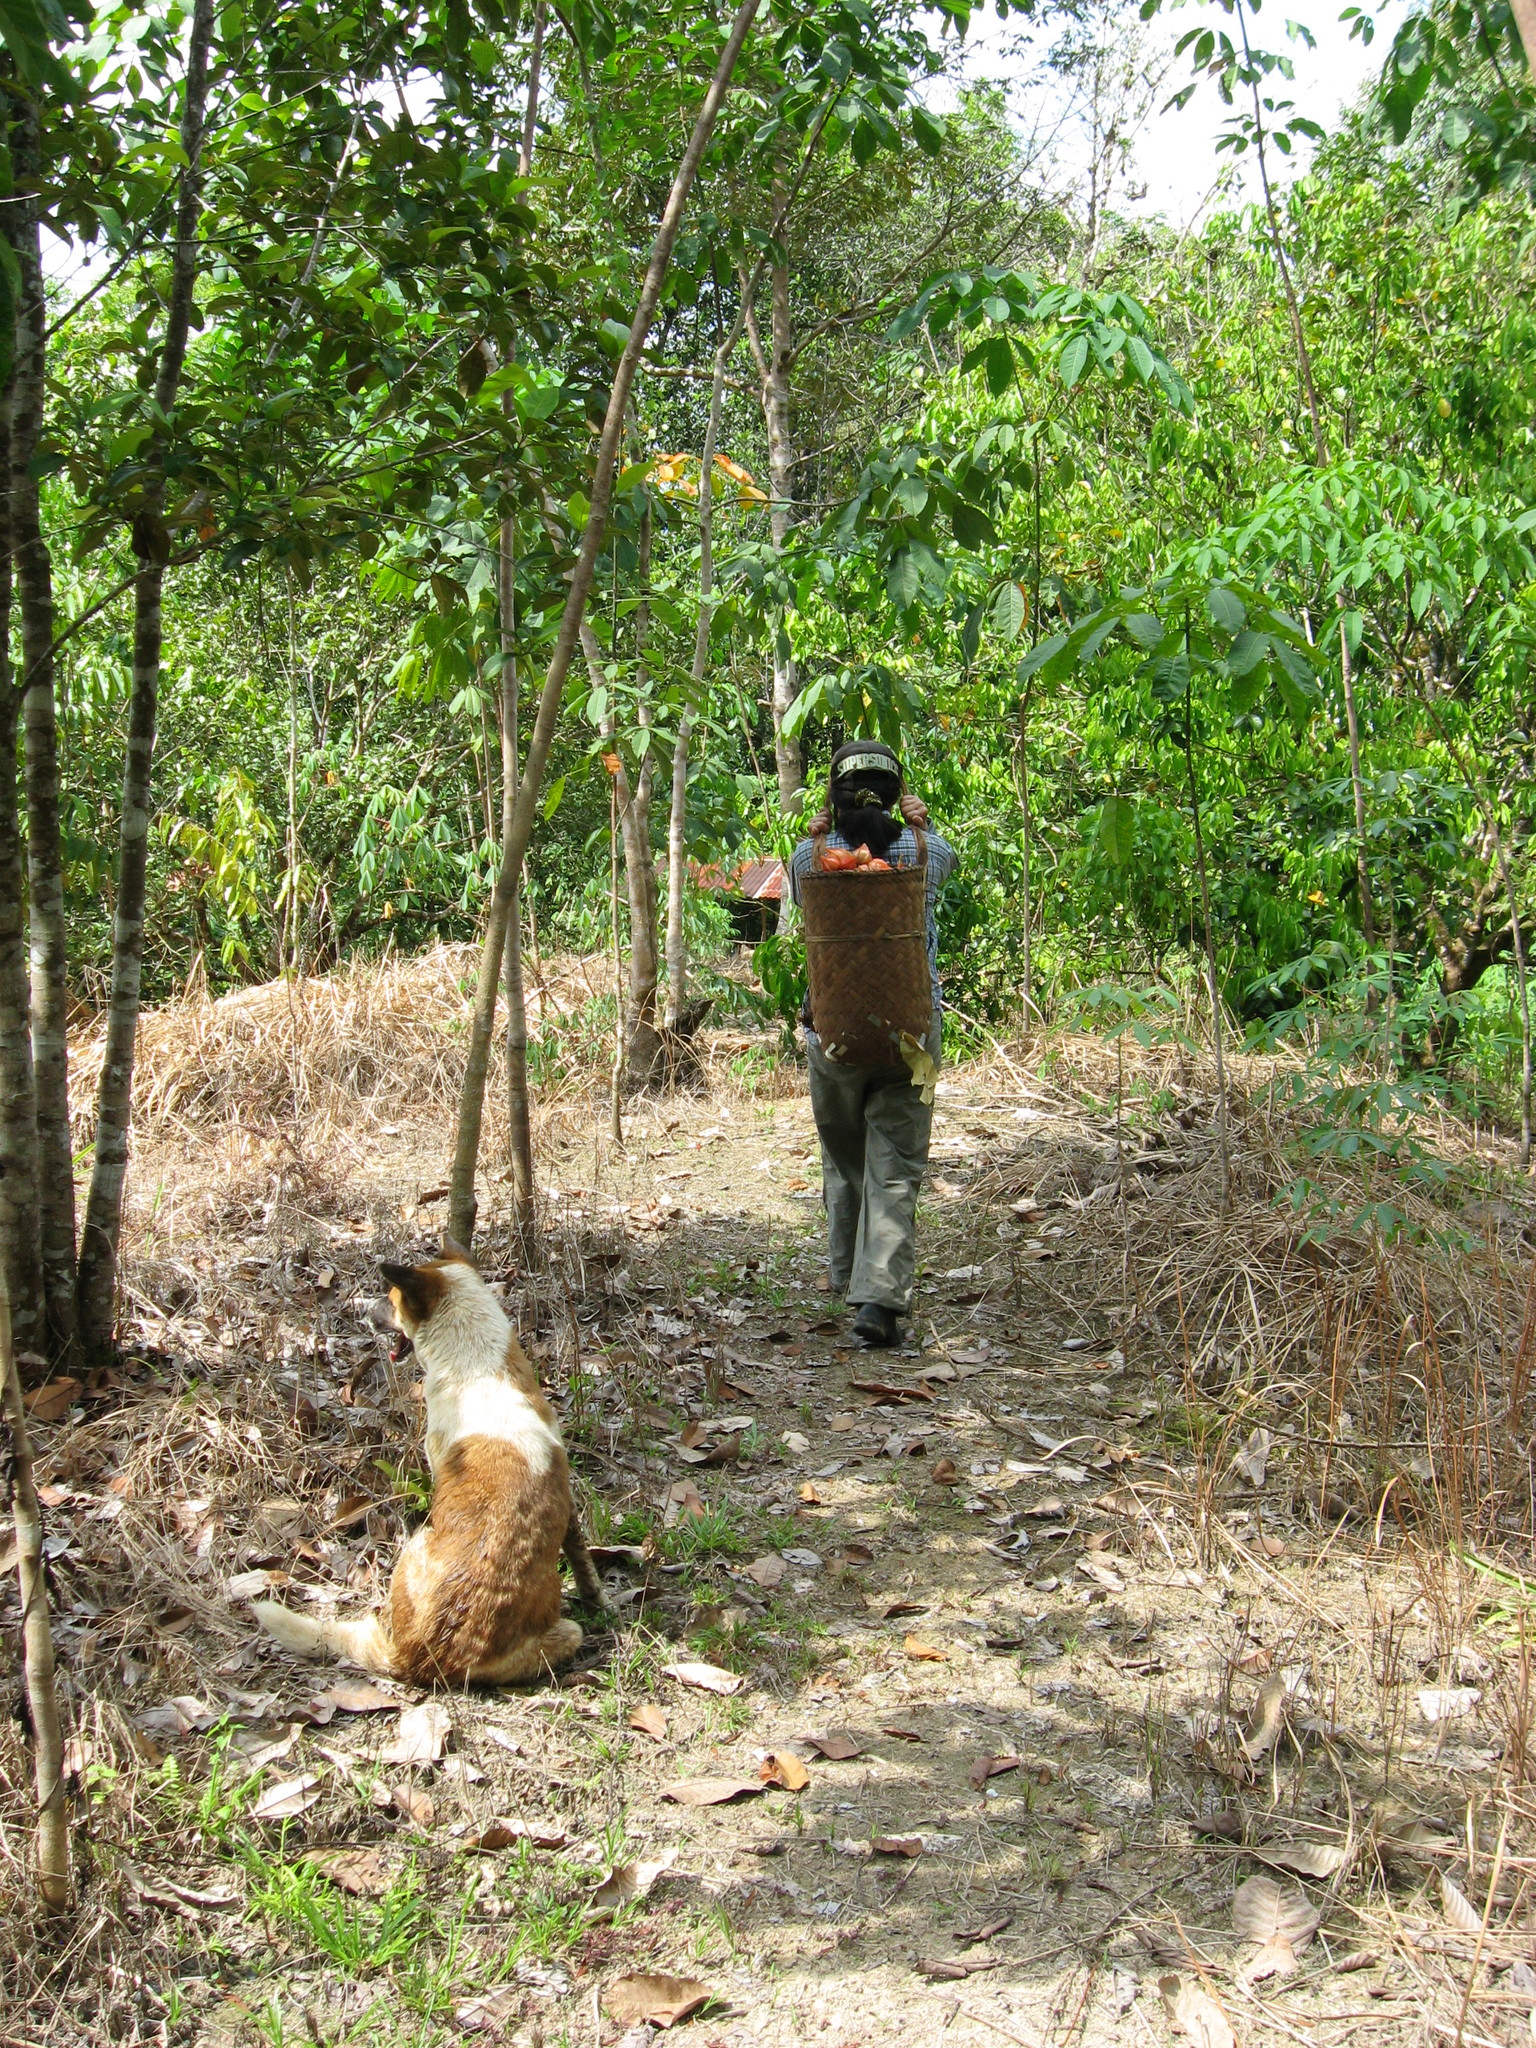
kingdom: Plantae
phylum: Tracheophyta
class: Magnoliopsida
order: Malpighiales
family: Phyllanthaceae
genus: Baccaurea
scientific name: Baccaurea angulata
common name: Red angle tampoi
